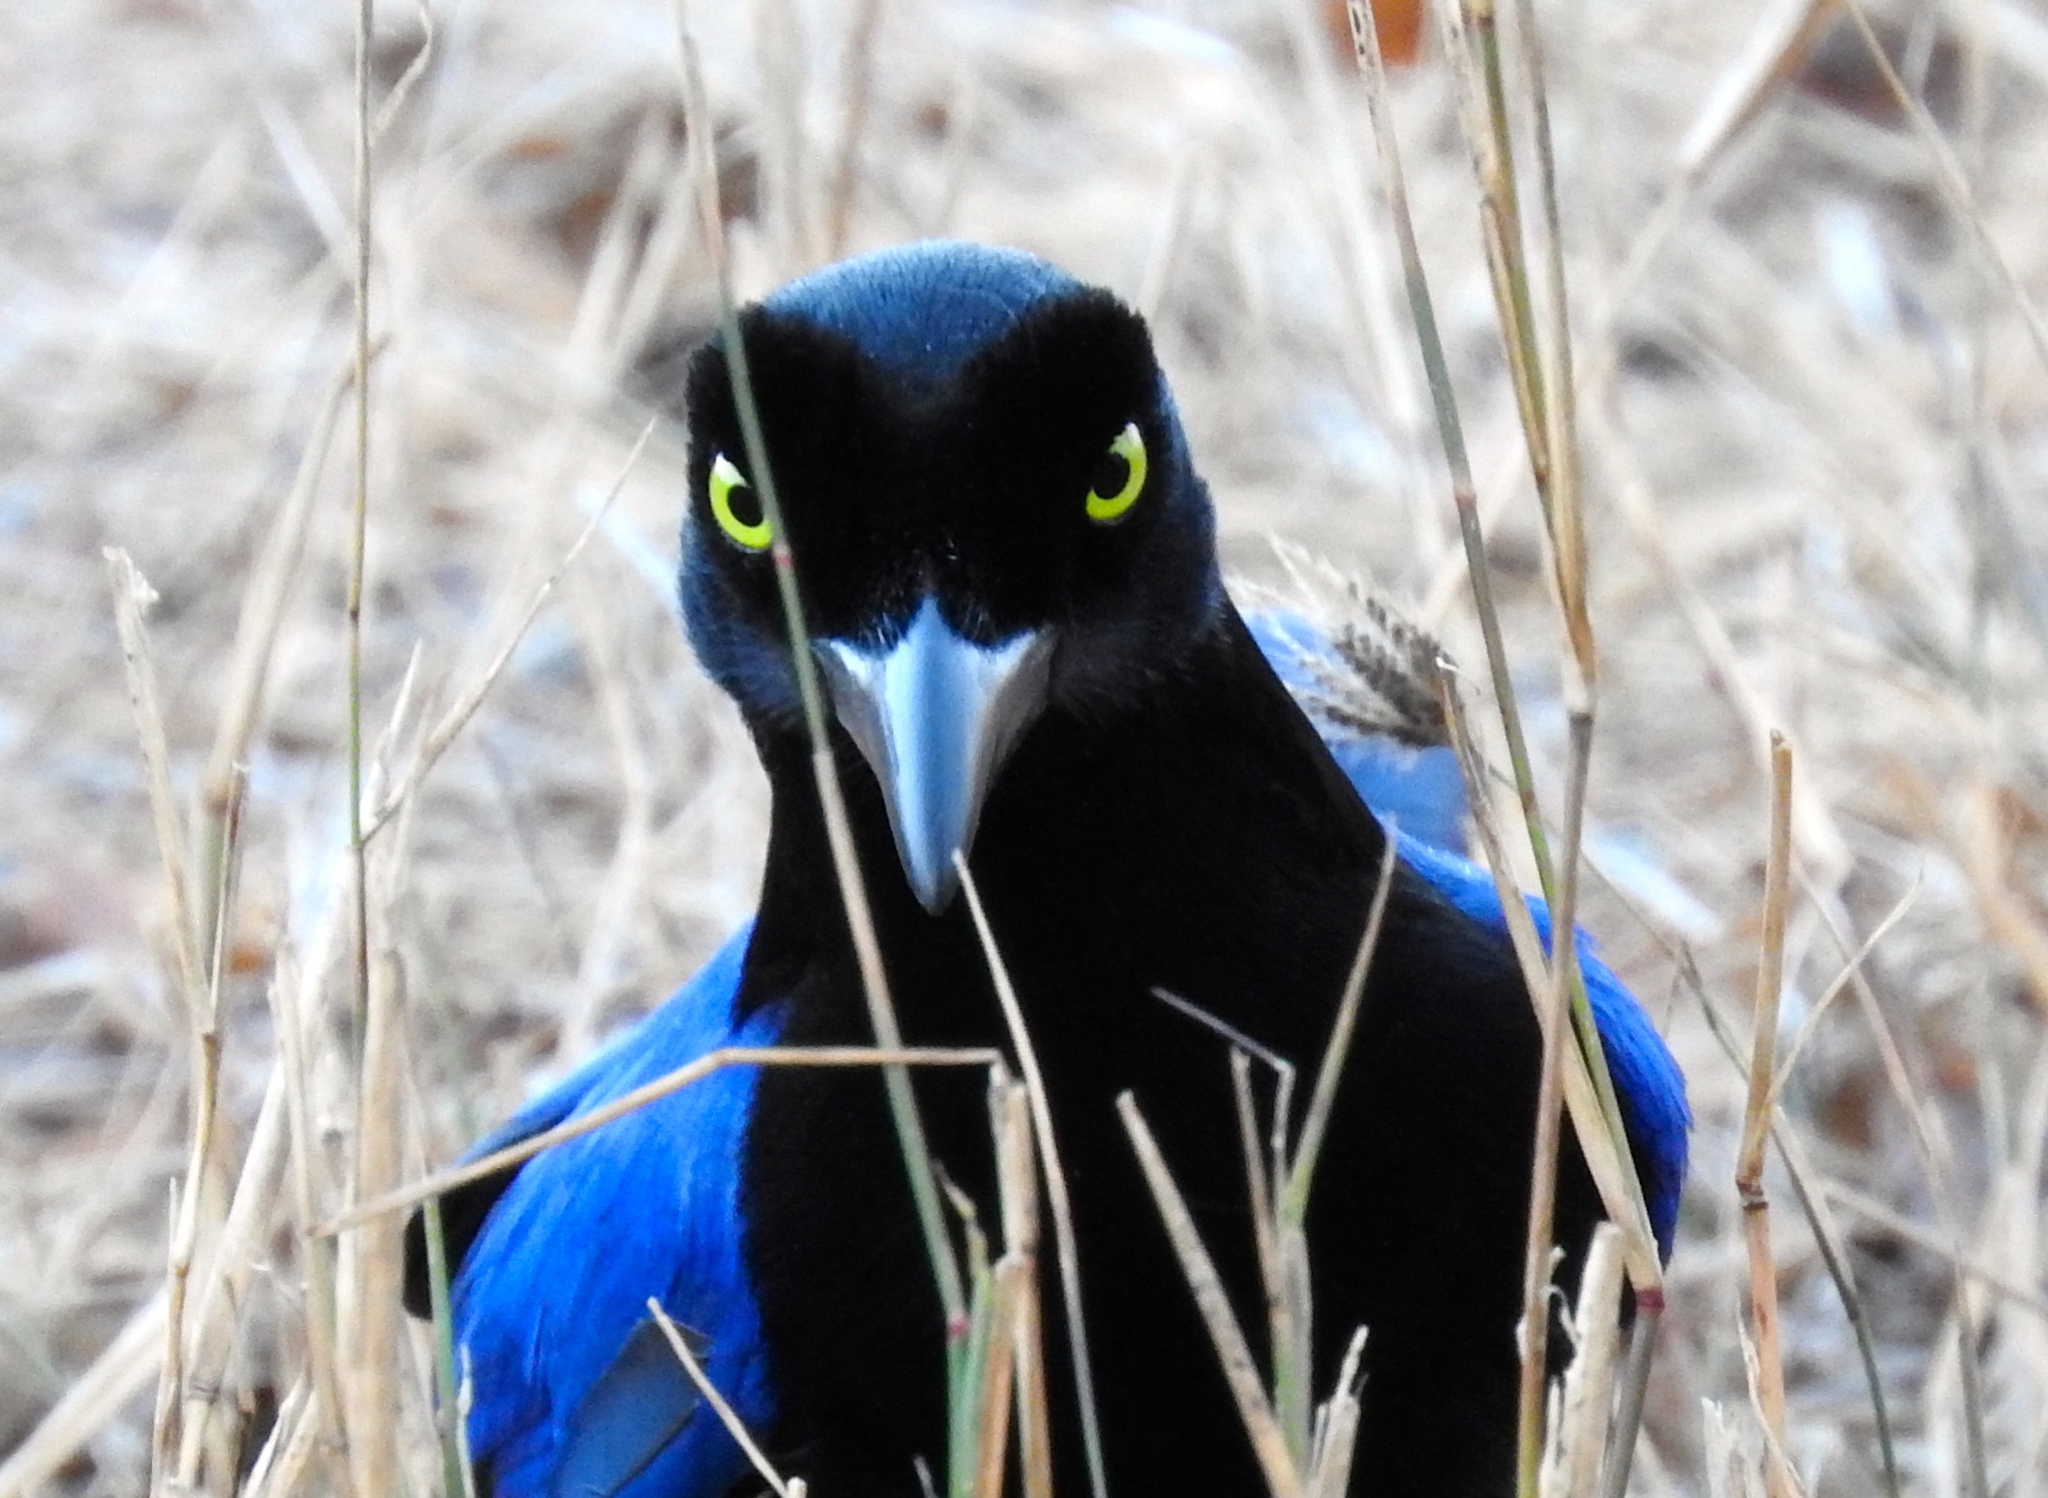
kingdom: Animalia
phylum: Chordata
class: Aves
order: Passeriformes
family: Corvidae
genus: Cyanocorax
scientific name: Cyanocorax beecheii
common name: Purplish-backed jay
